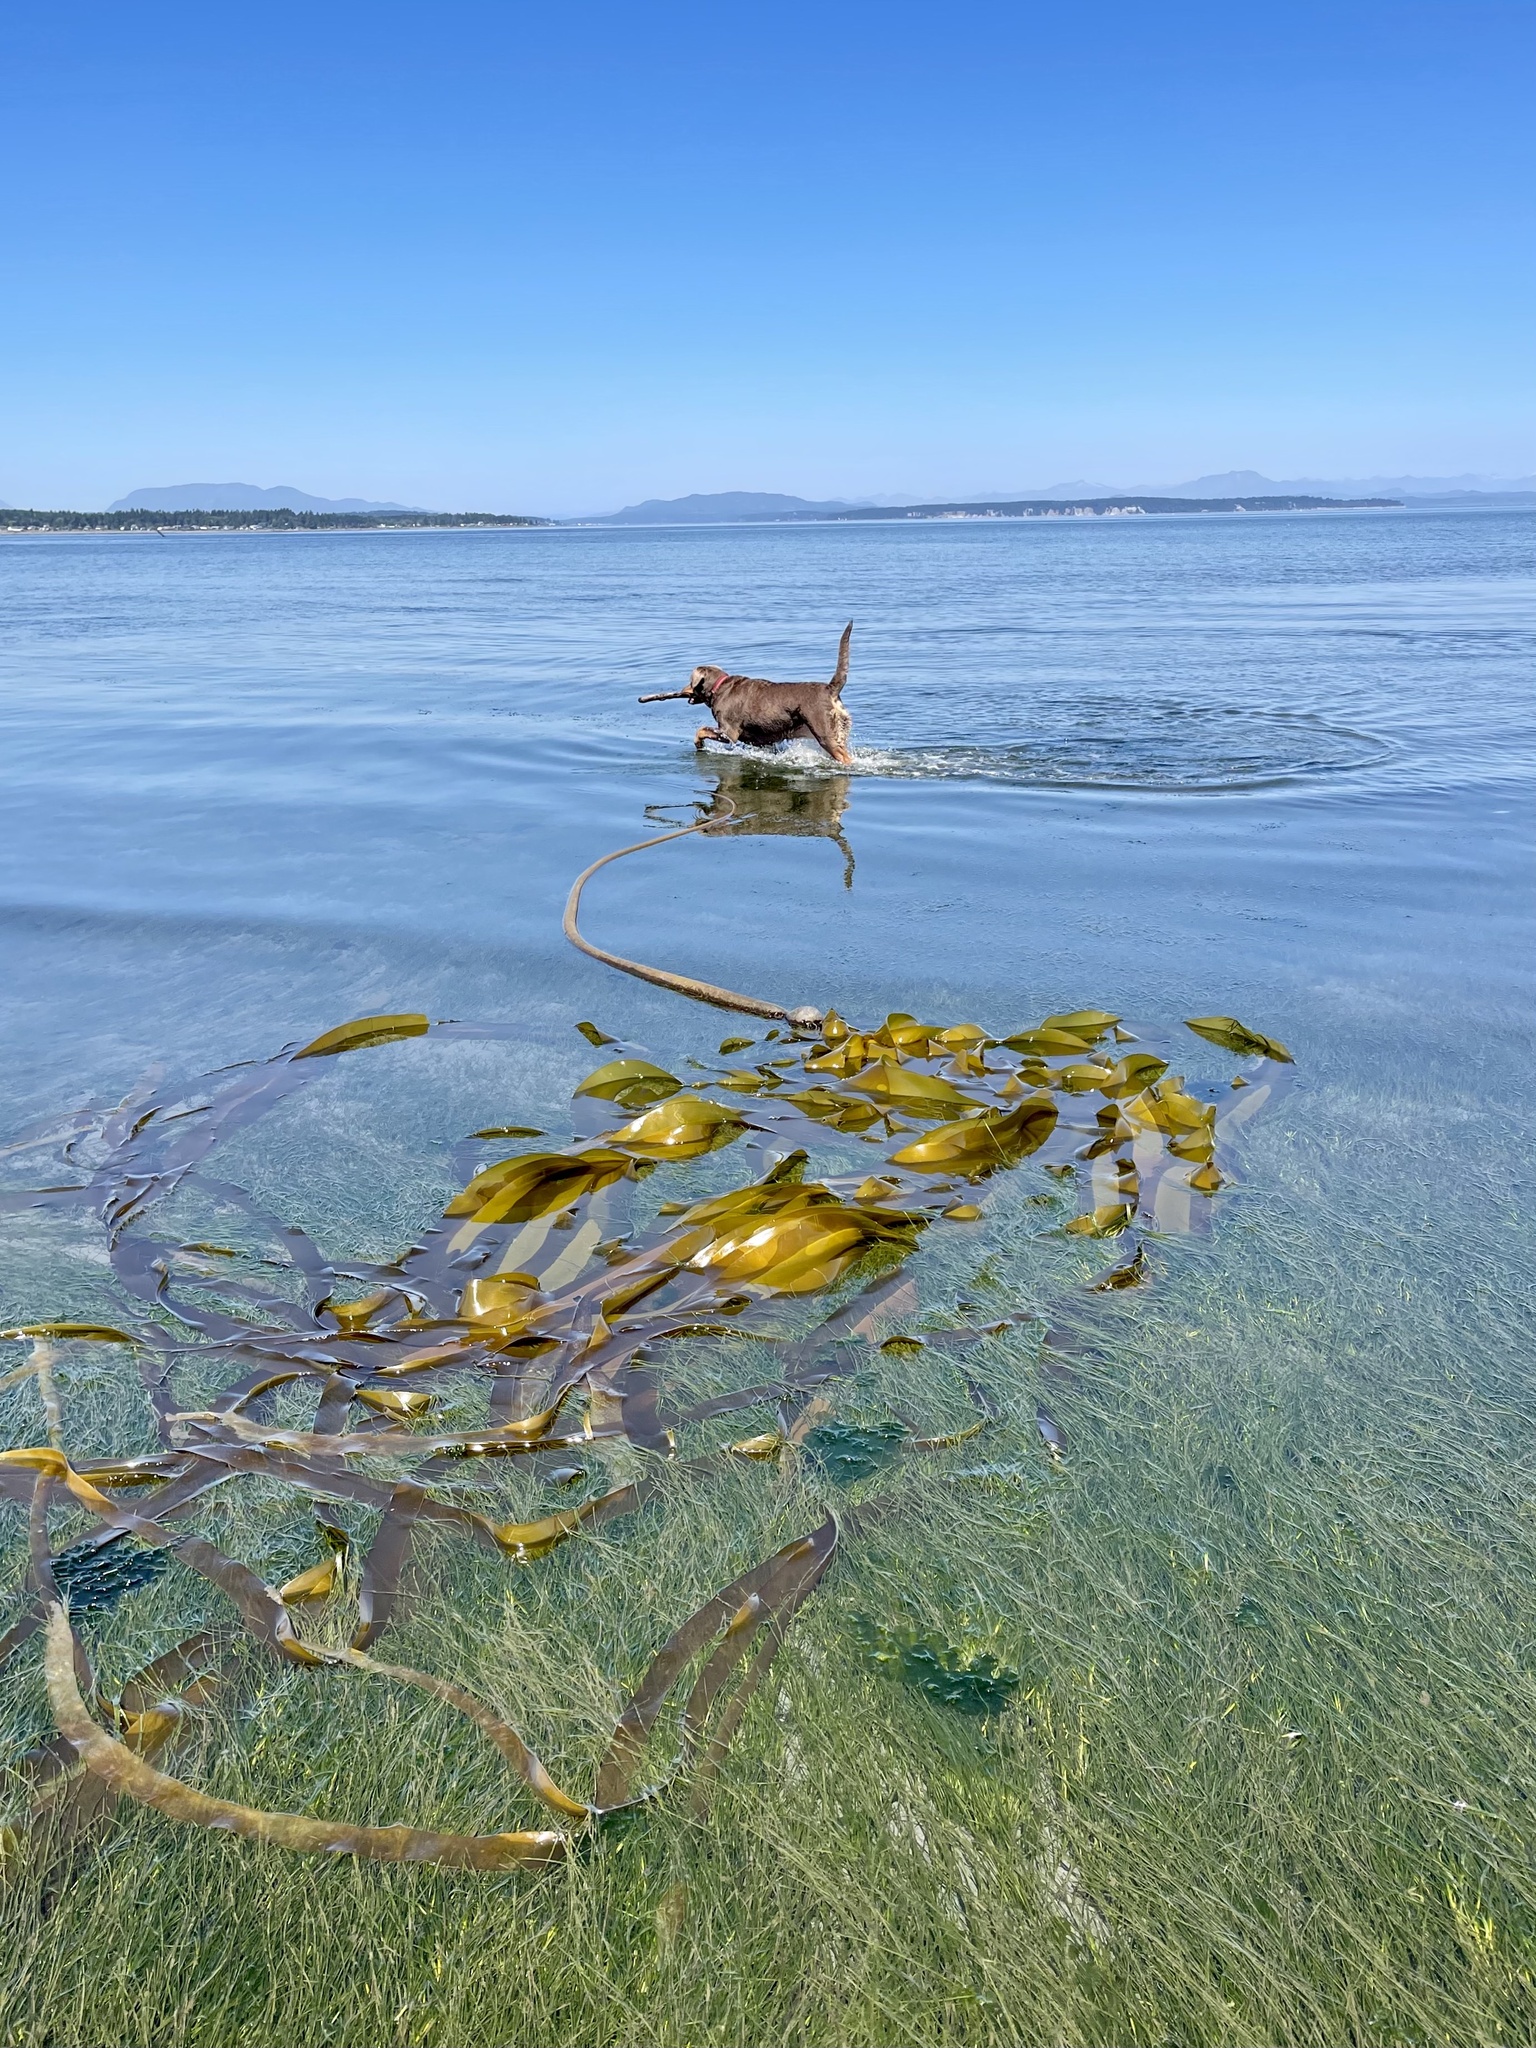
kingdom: Chromista
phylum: Ochrophyta
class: Phaeophyceae
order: Laminariales
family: Laminariaceae
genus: Nereocystis
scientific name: Nereocystis luetkeana
